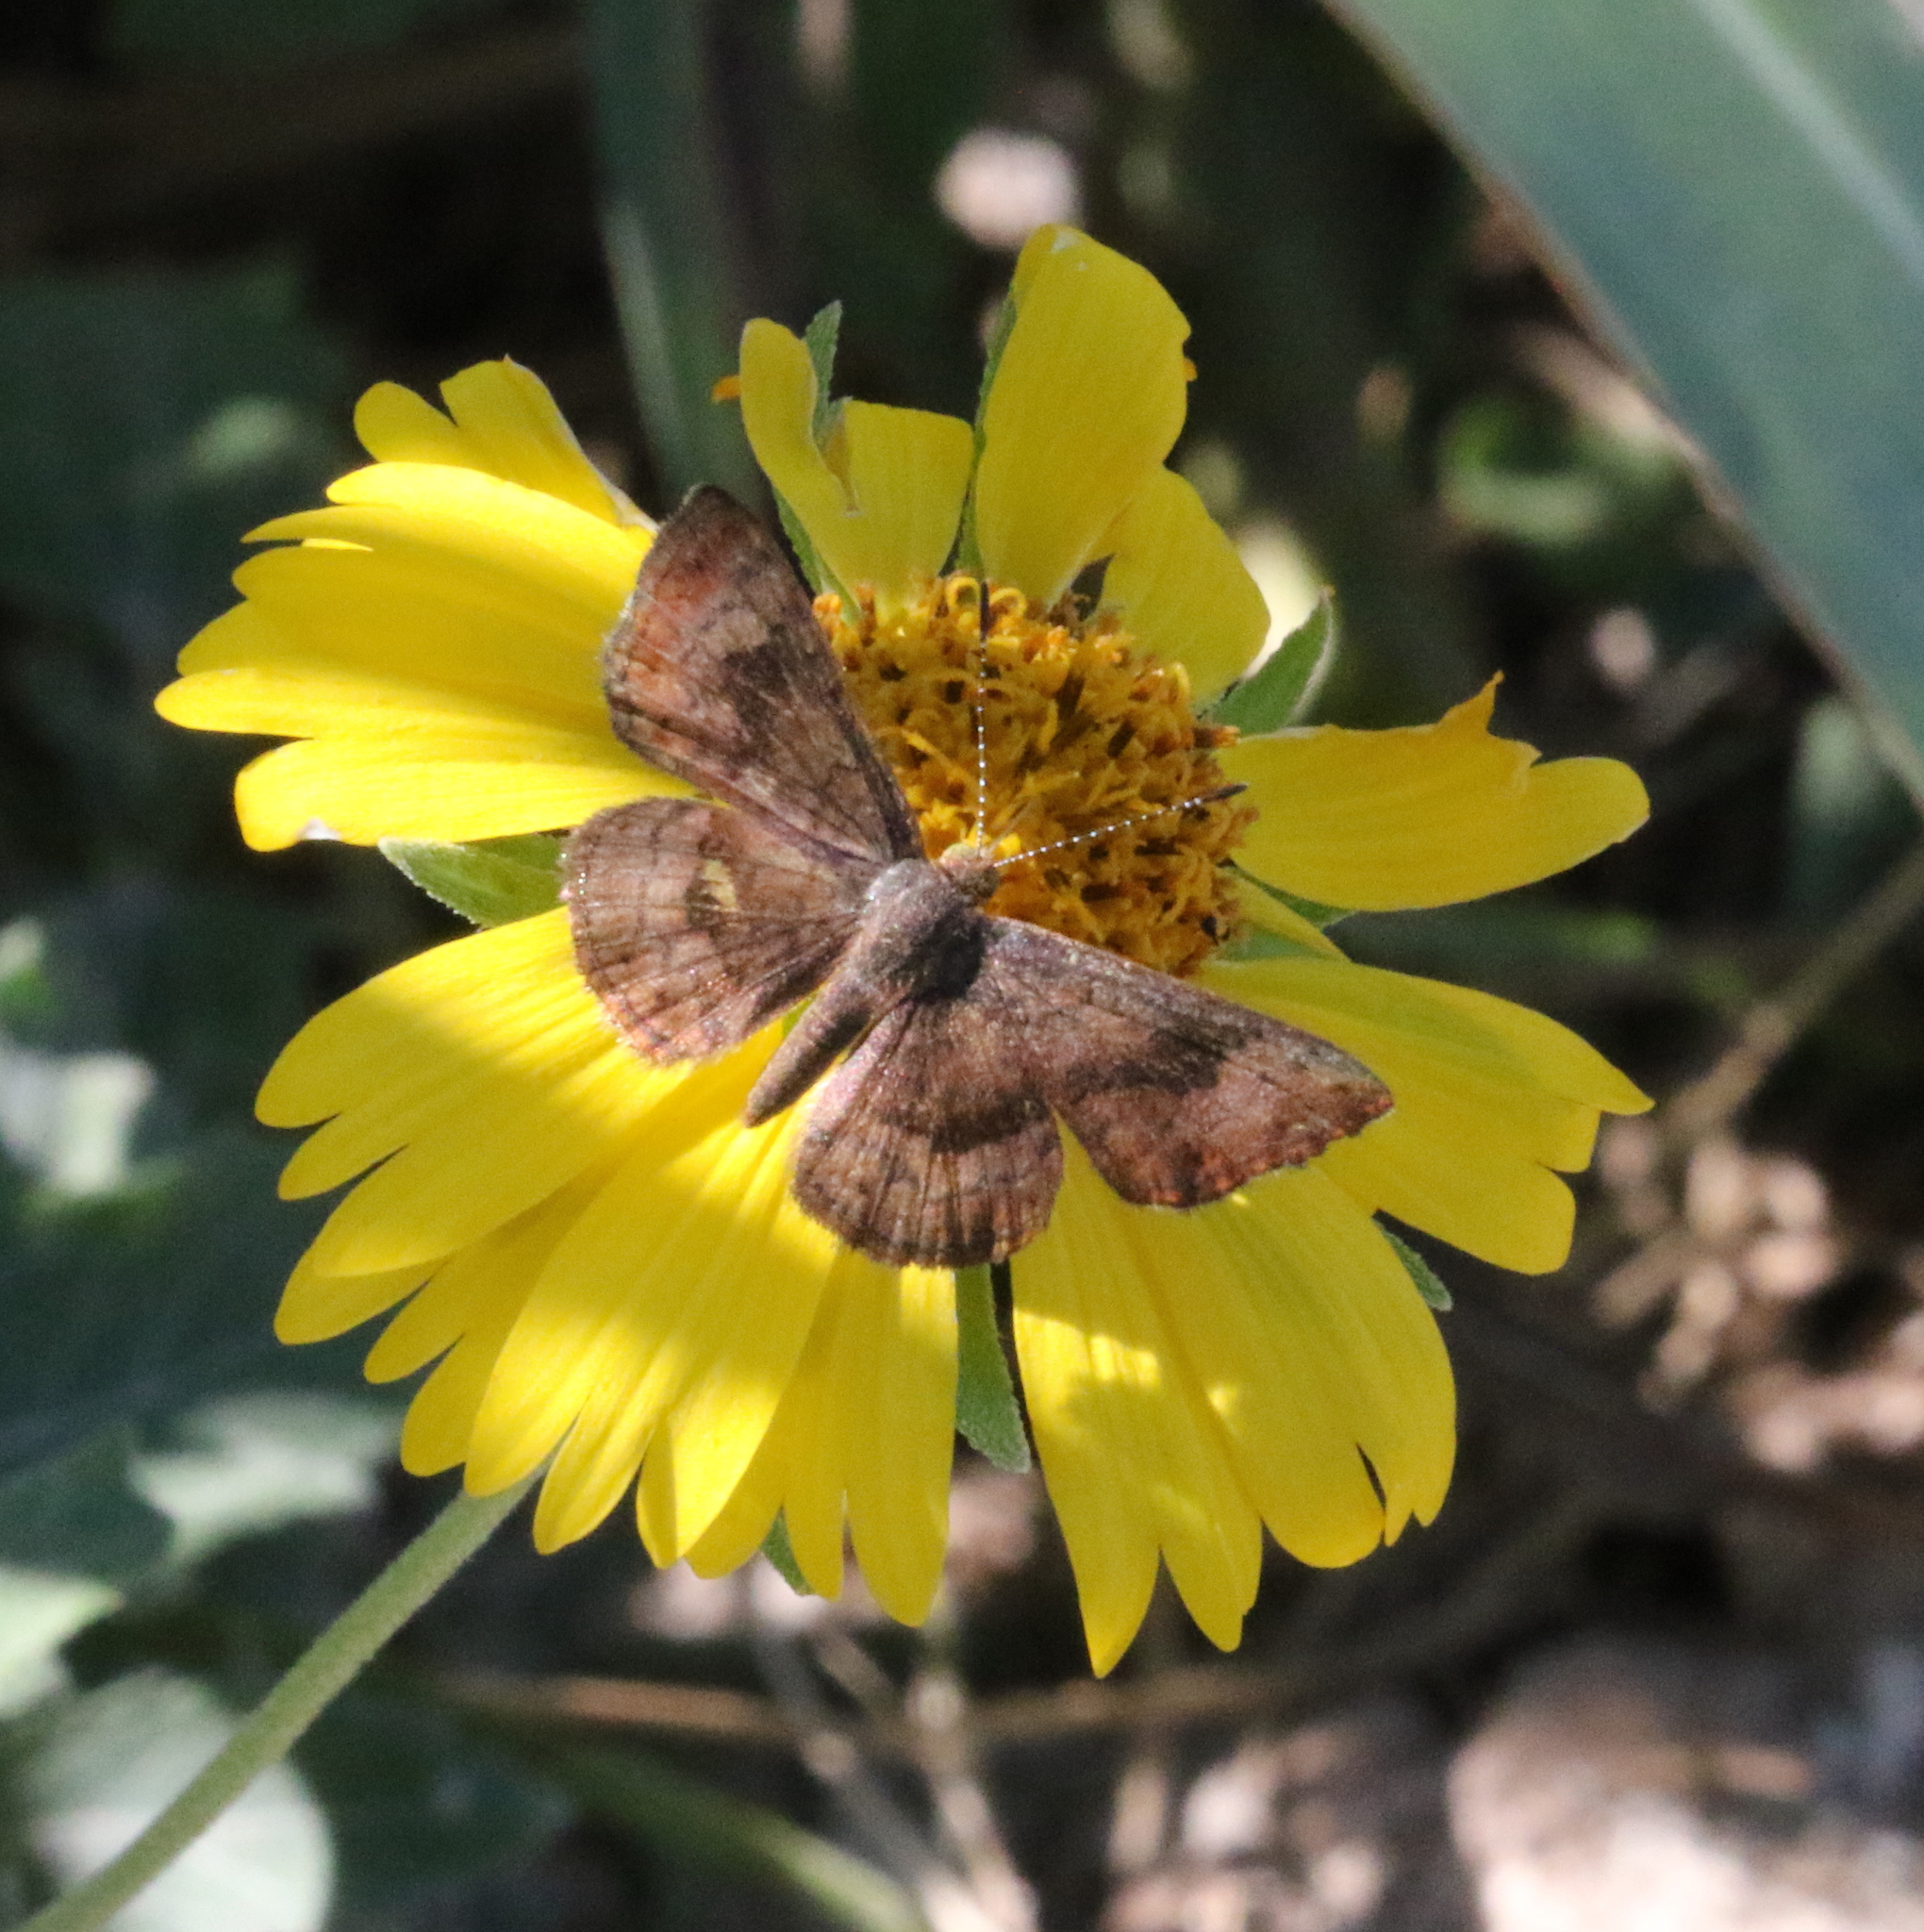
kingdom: Animalia
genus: Calephelis
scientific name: Calephelis nemesis
